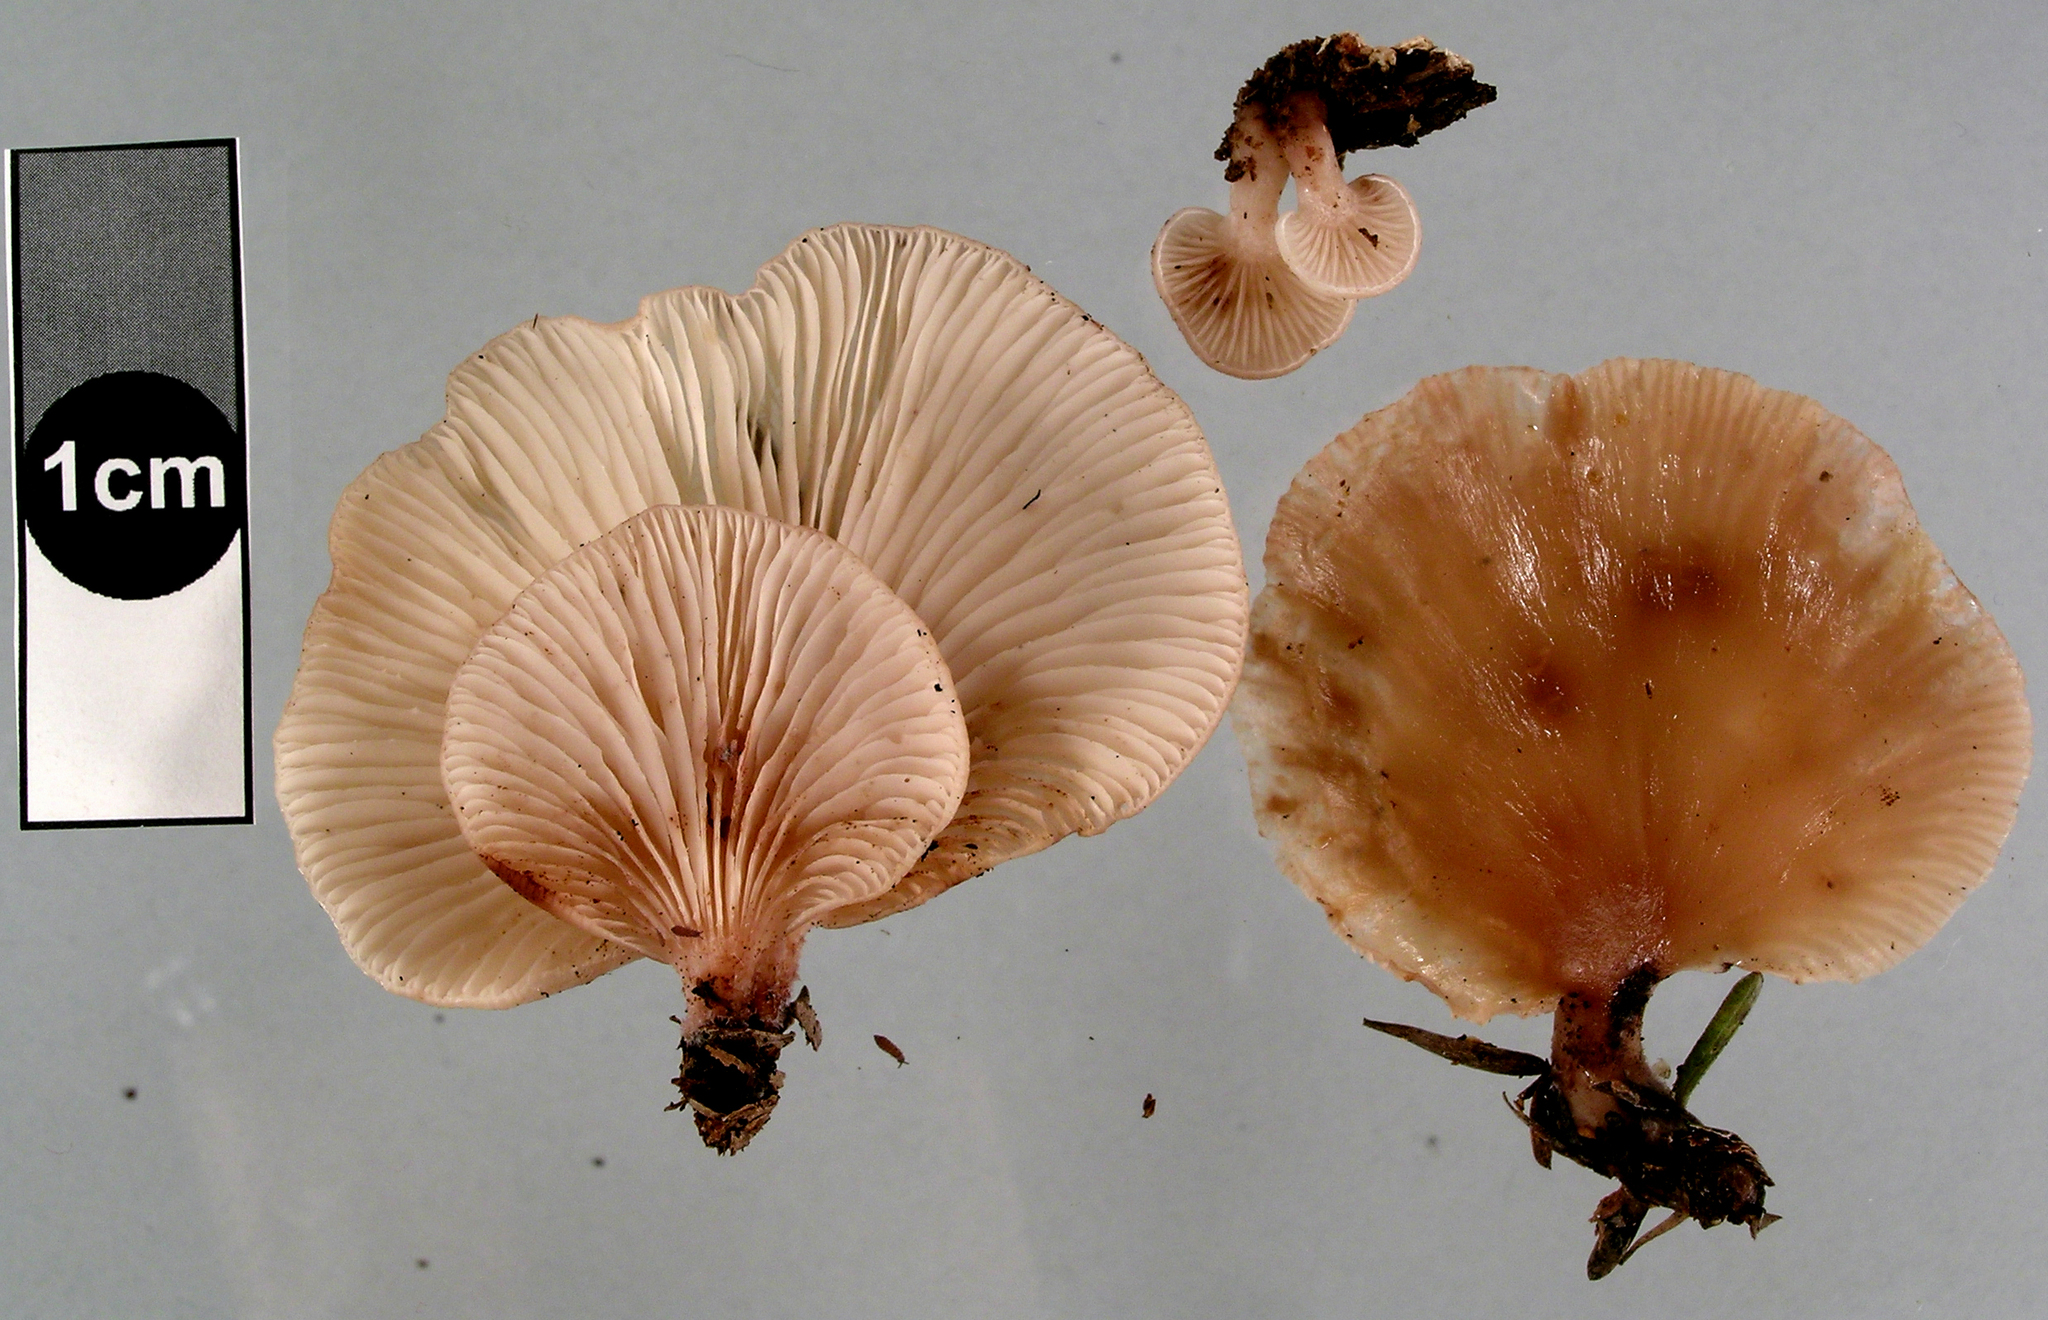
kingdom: Fungi
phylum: Basidiomycota
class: Agaricomycetes
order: Agaricales
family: Mycenaceae
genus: Panellus
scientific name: Panellus longinquus
